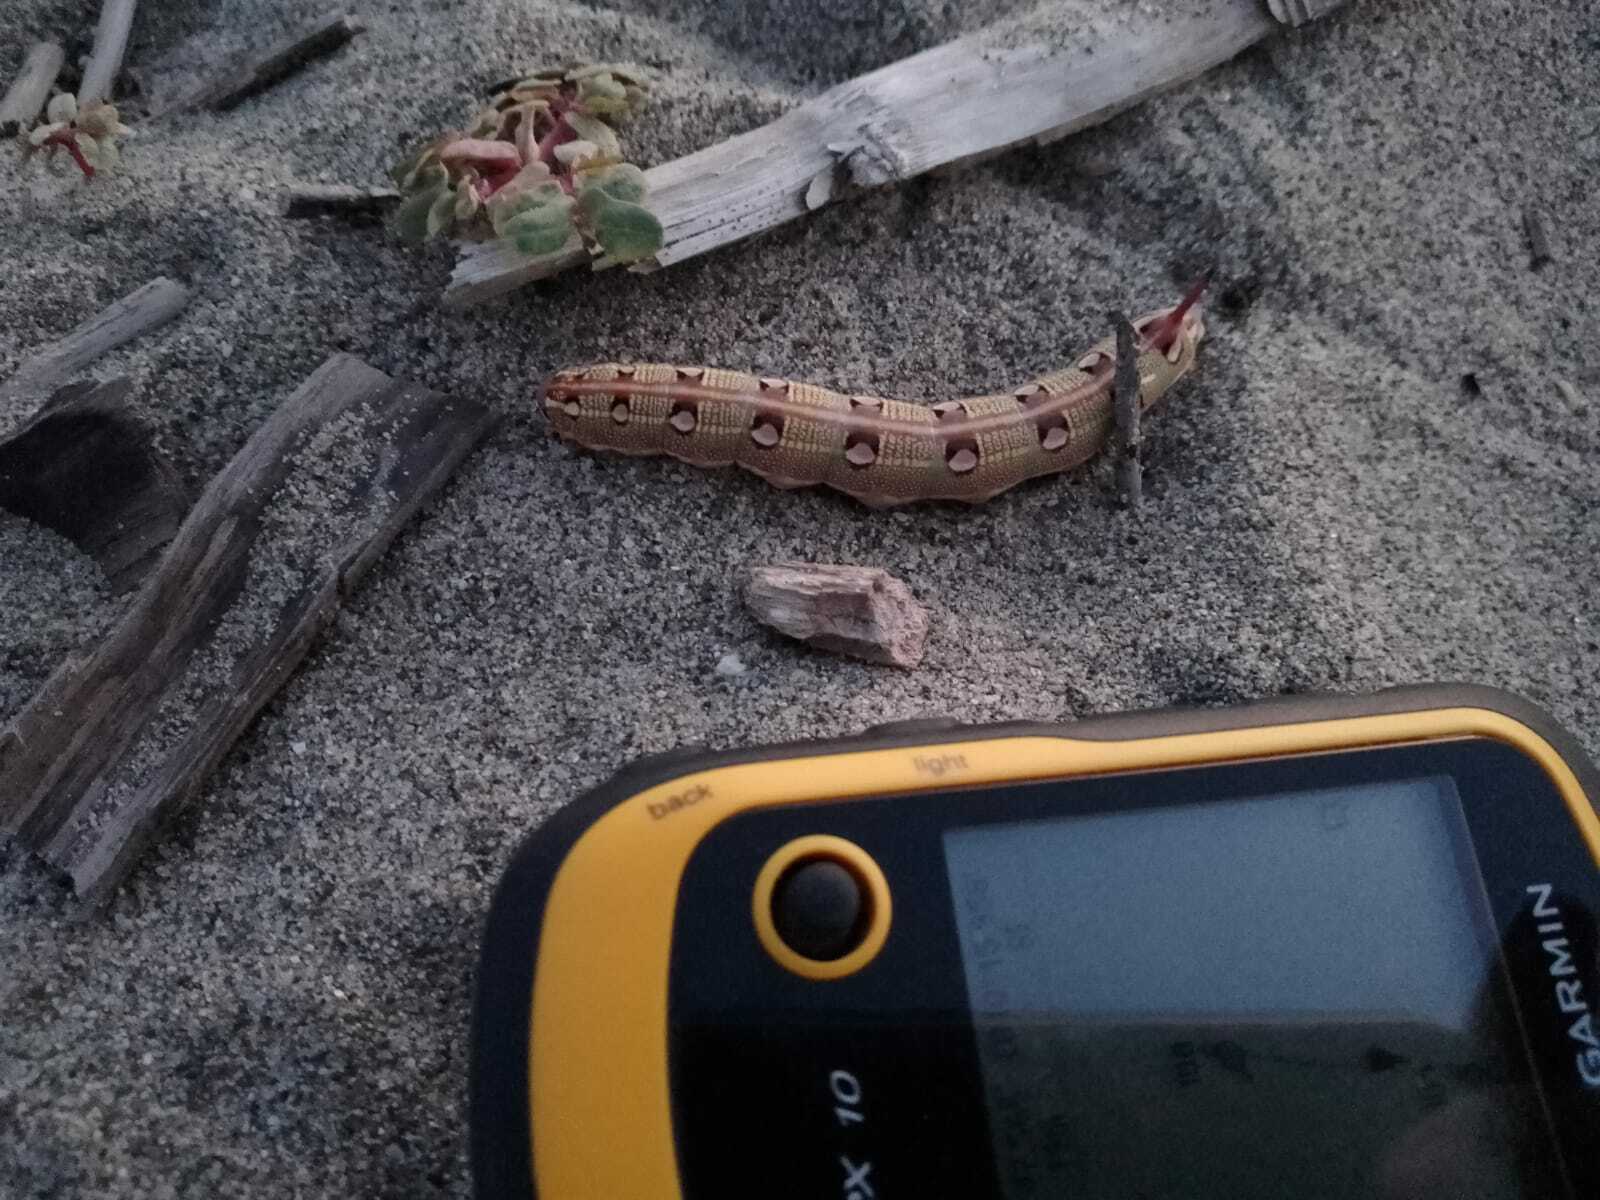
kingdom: Animalia
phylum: Arthropoda
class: Insecta
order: Lepidoptera
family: Sphingidae
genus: Hyles
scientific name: Hyles livornica
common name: Striped hawk-moth
